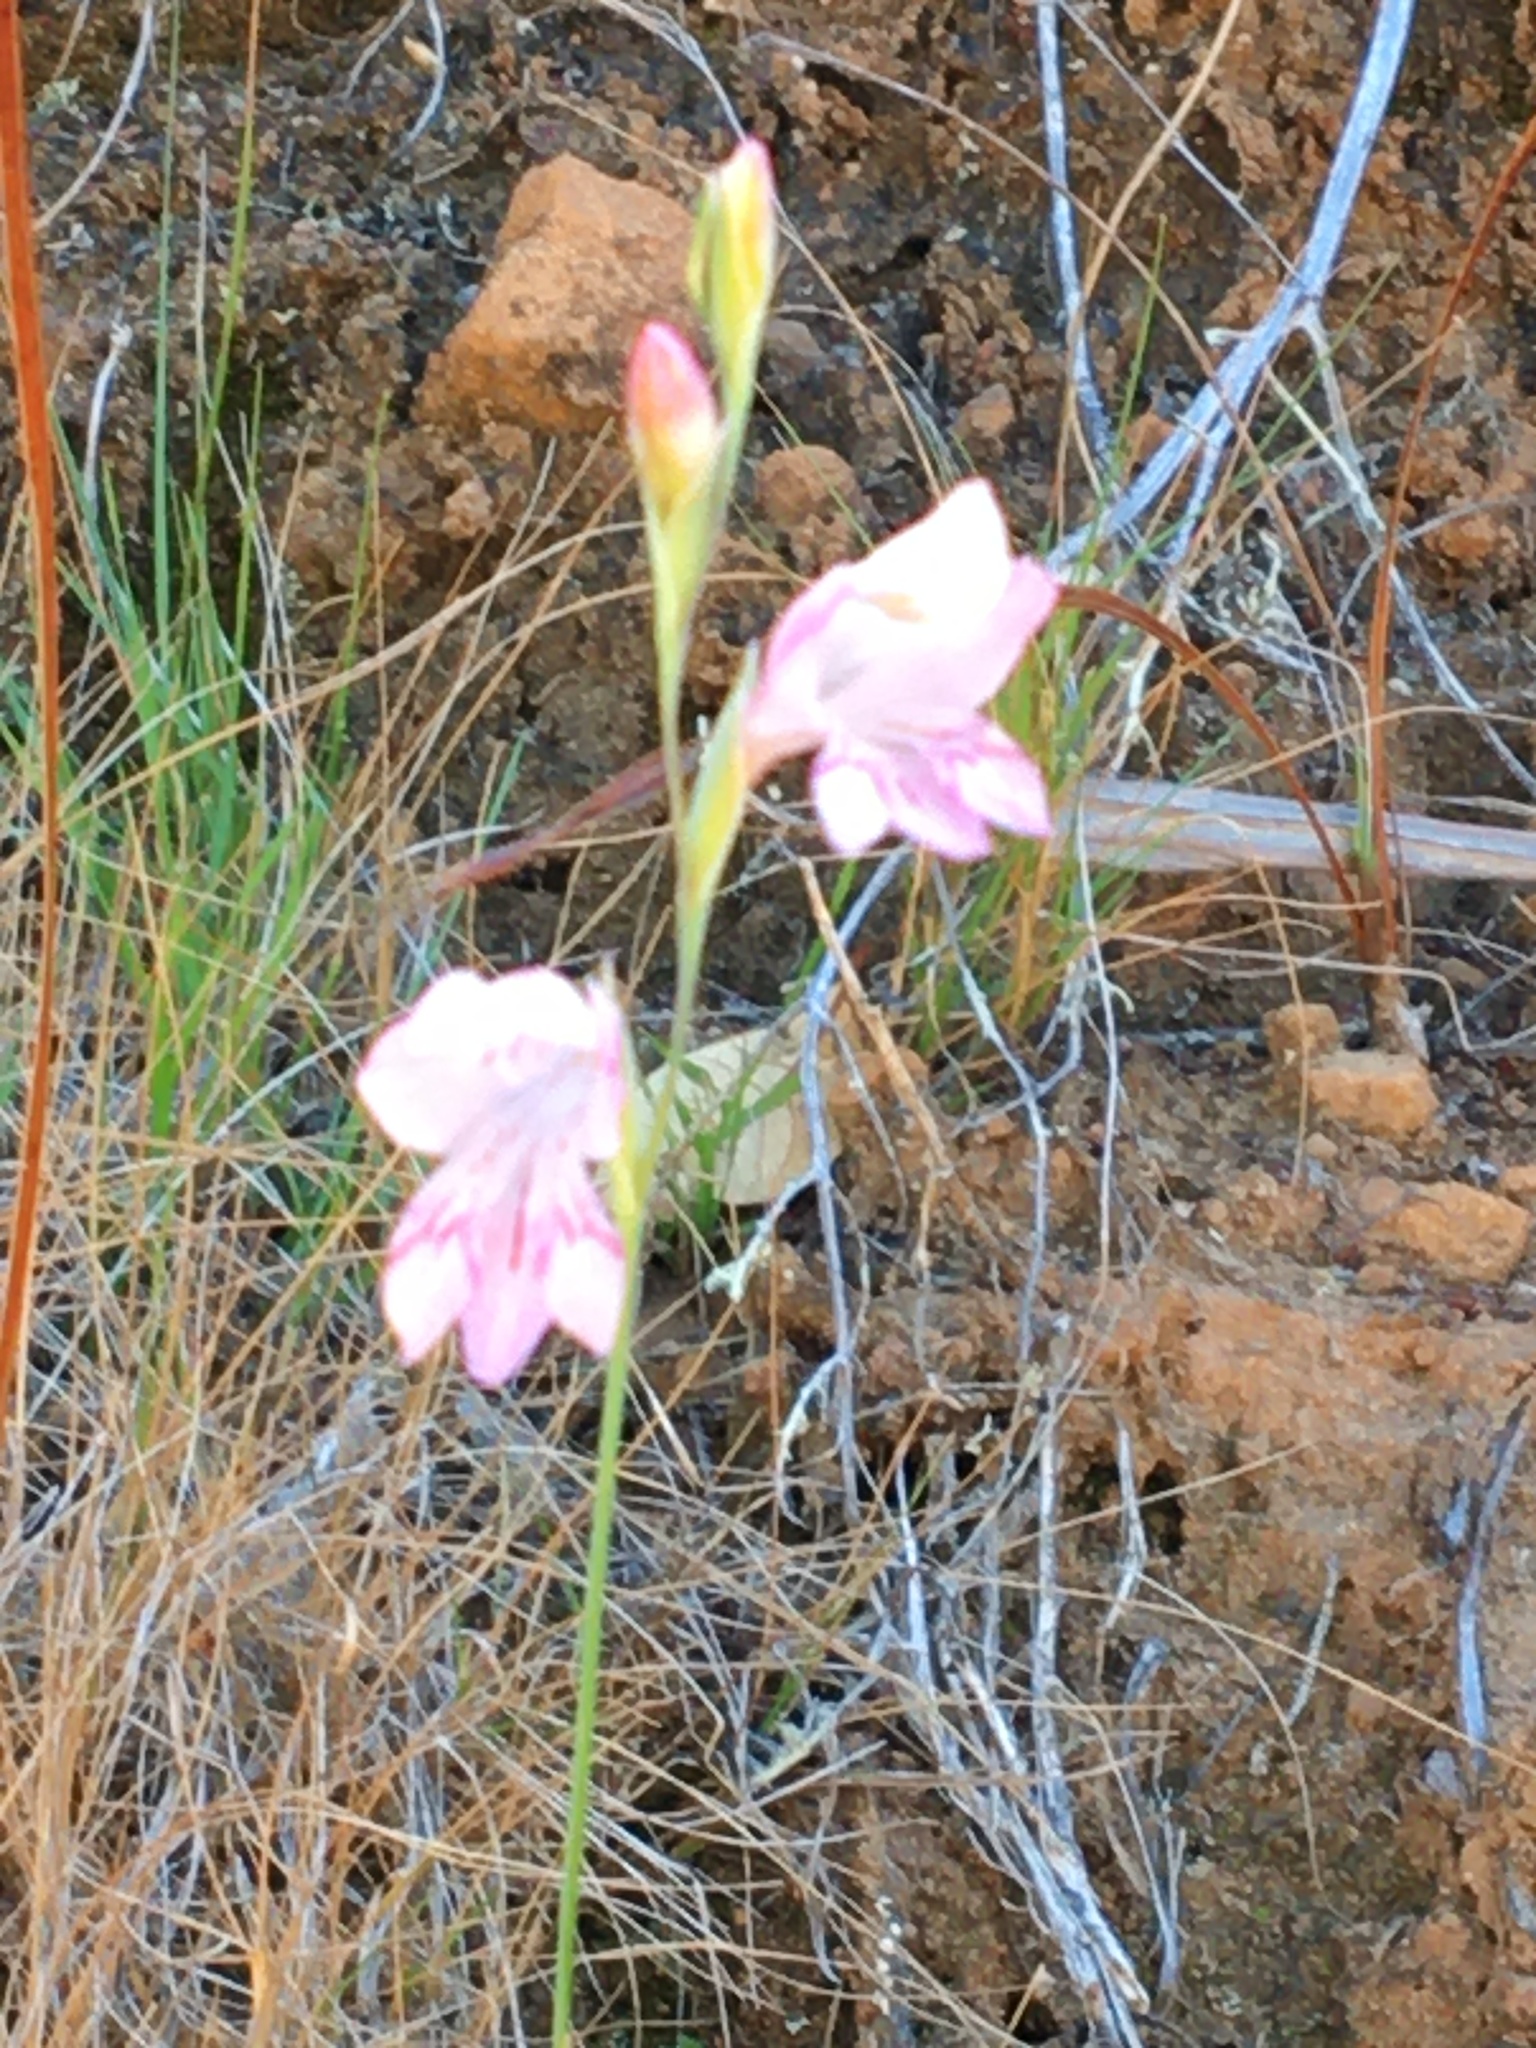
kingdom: Plantae
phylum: Tracheophyta
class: Liliopsida
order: Asparagales
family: Iridaceae
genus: Gladiolus
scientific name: Gladiolus brevifolius
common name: March pypie
